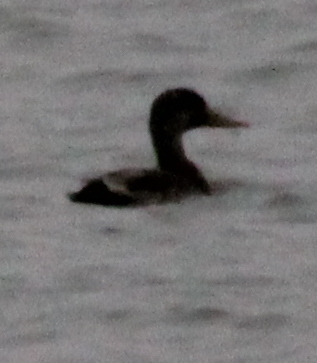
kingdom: Animalia
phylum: Chordata
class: Aves
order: Anseriformes
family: Anatidae
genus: Mareca
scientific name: Mareca strepera
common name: Gadwall
